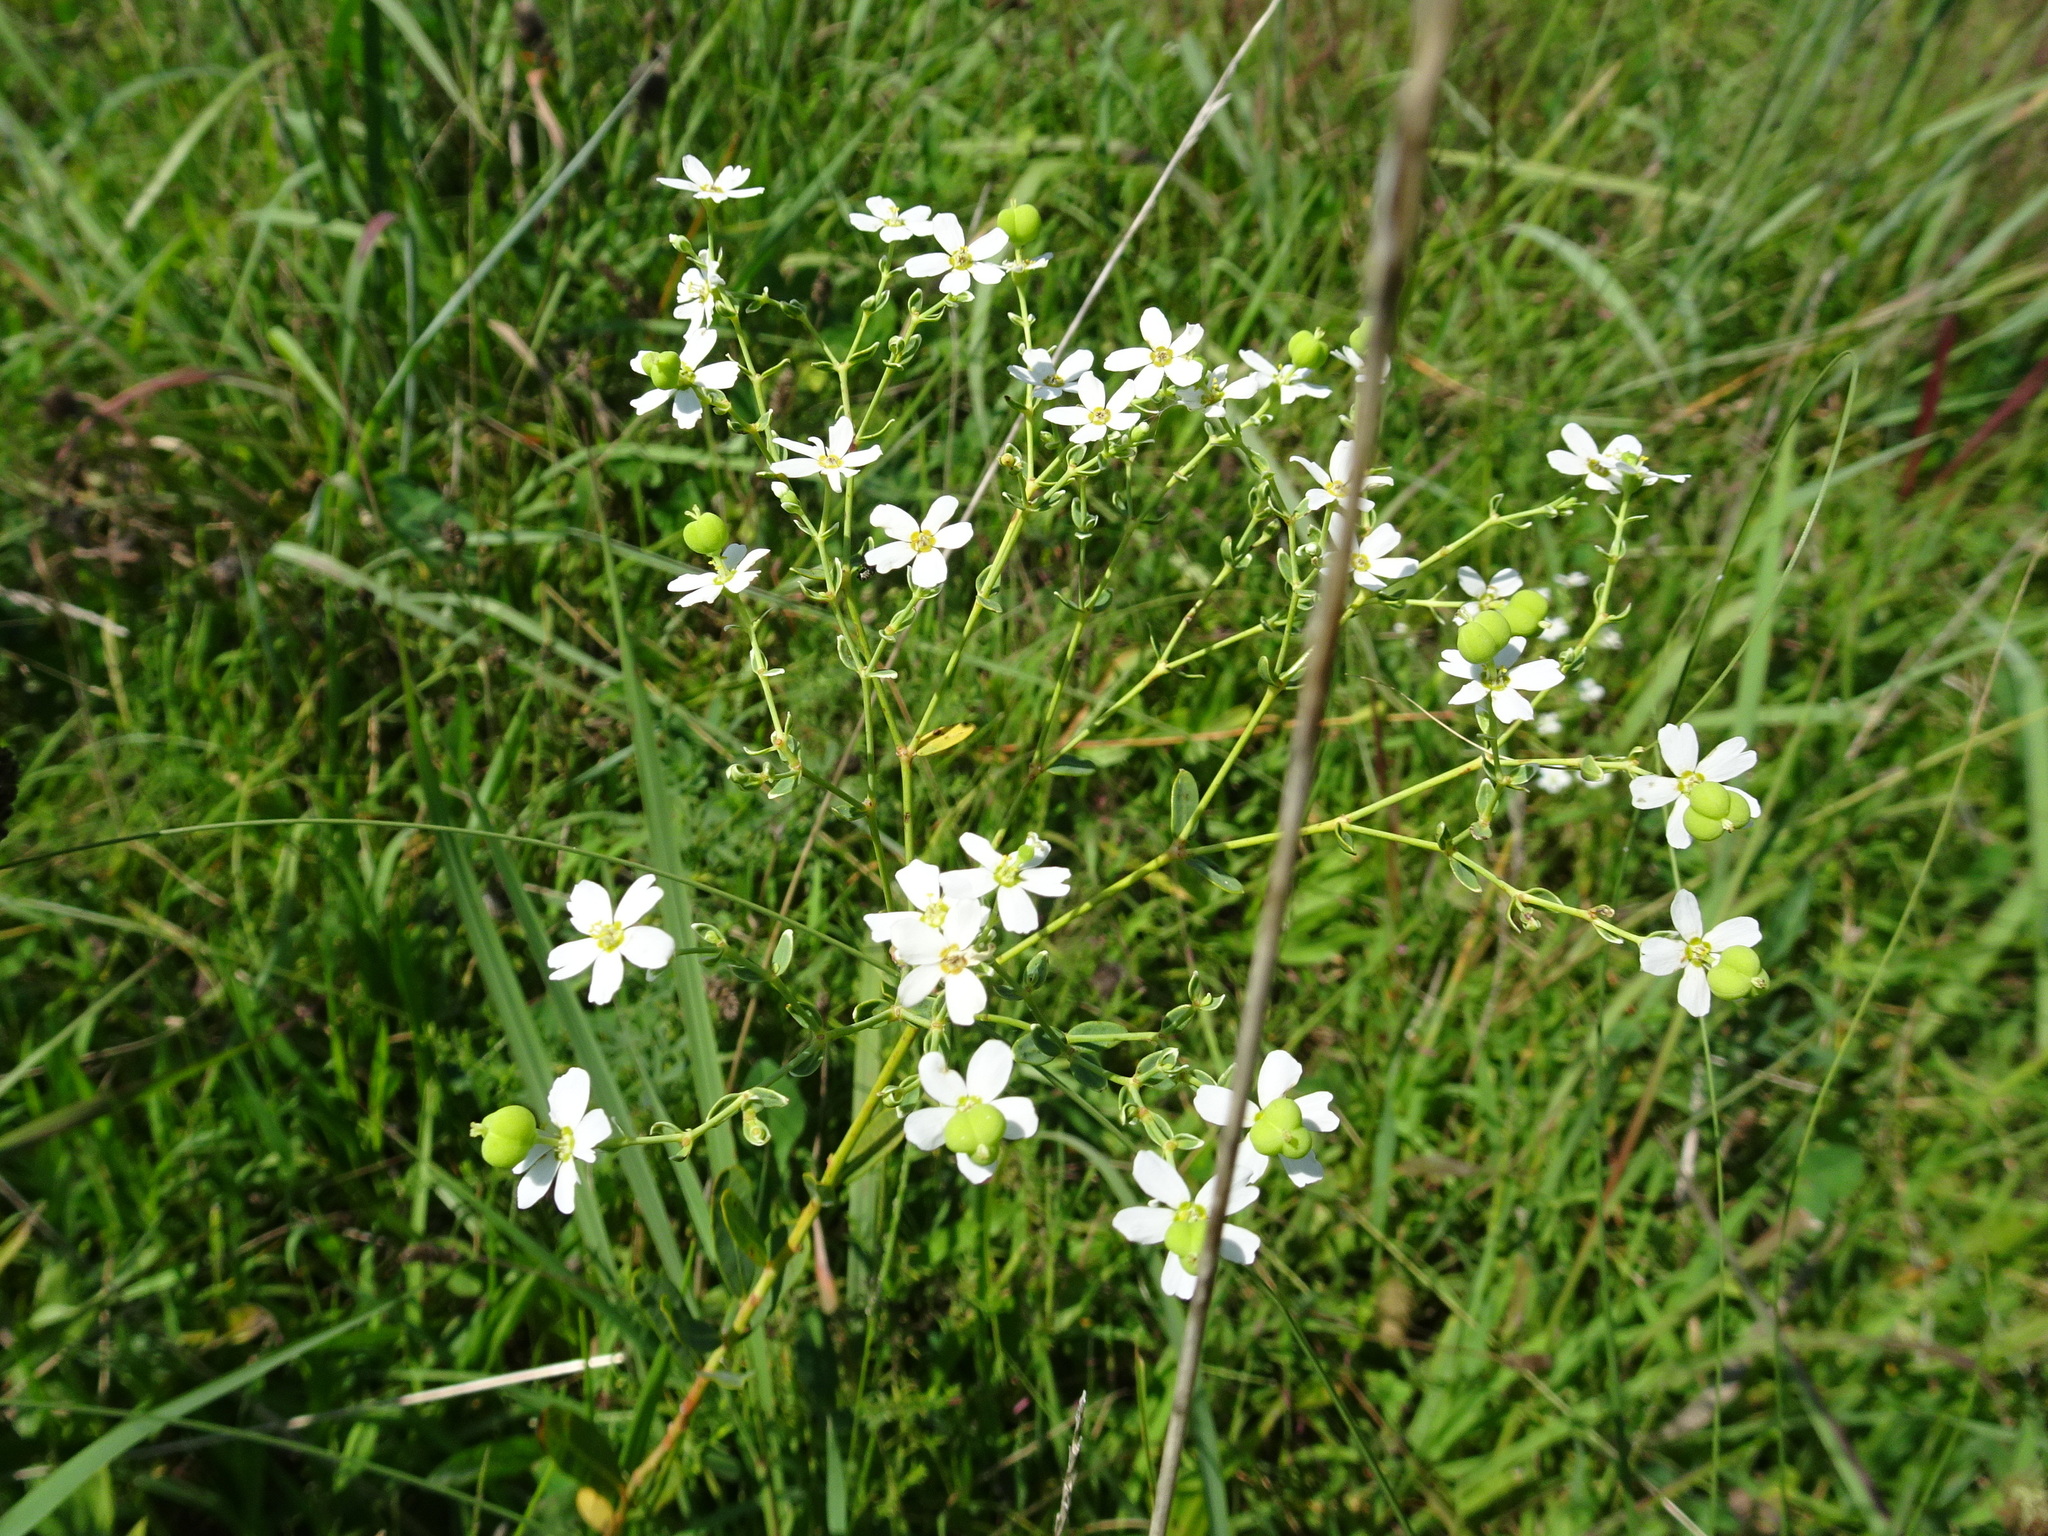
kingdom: Plantae
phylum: Tracheophyta
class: Magnoliopsida
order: Malpighiales
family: Euphorbiaceae
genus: Euphorbia
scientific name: Euphorbia corollata
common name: Flowering spurge
